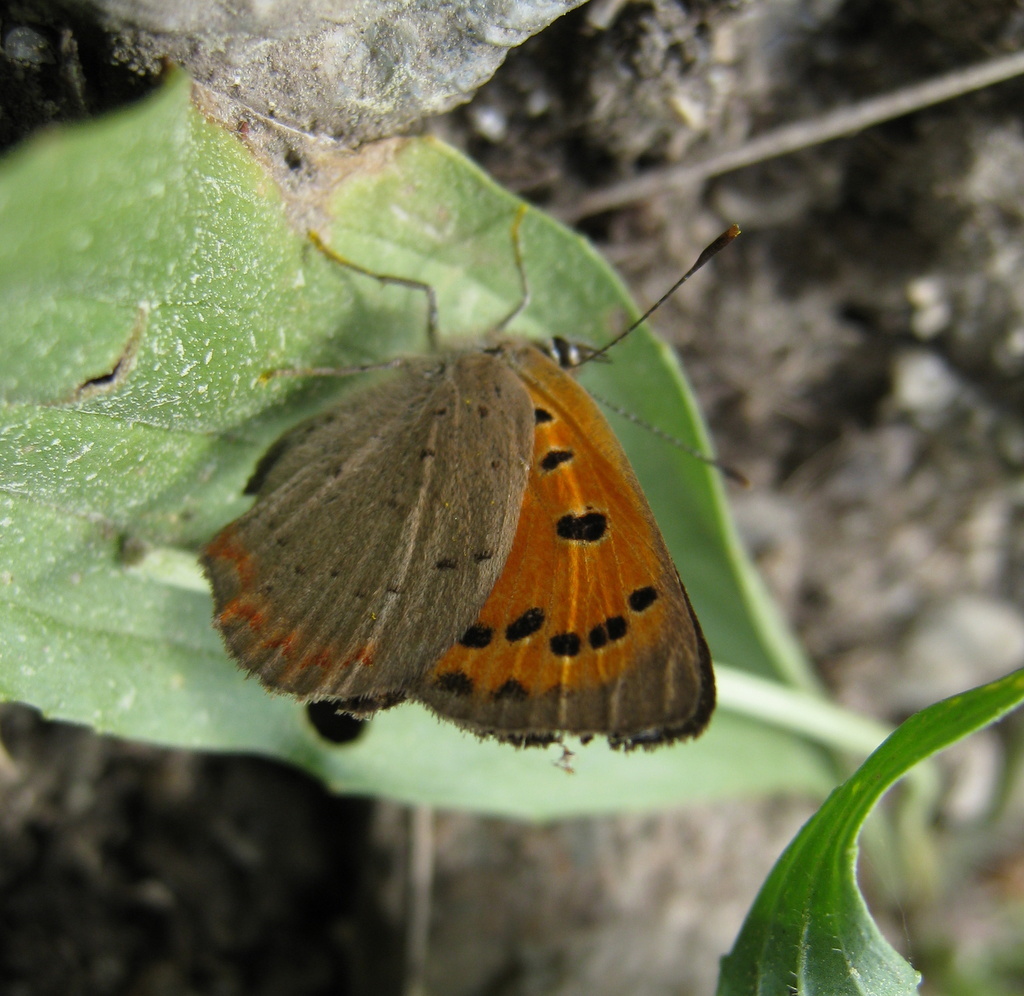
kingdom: Animalia
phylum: Arthropoda
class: Insecta
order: Lepidoptera
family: Lycaenidae
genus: Lycaena
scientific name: Lycaena phlaeas
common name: Small copper
